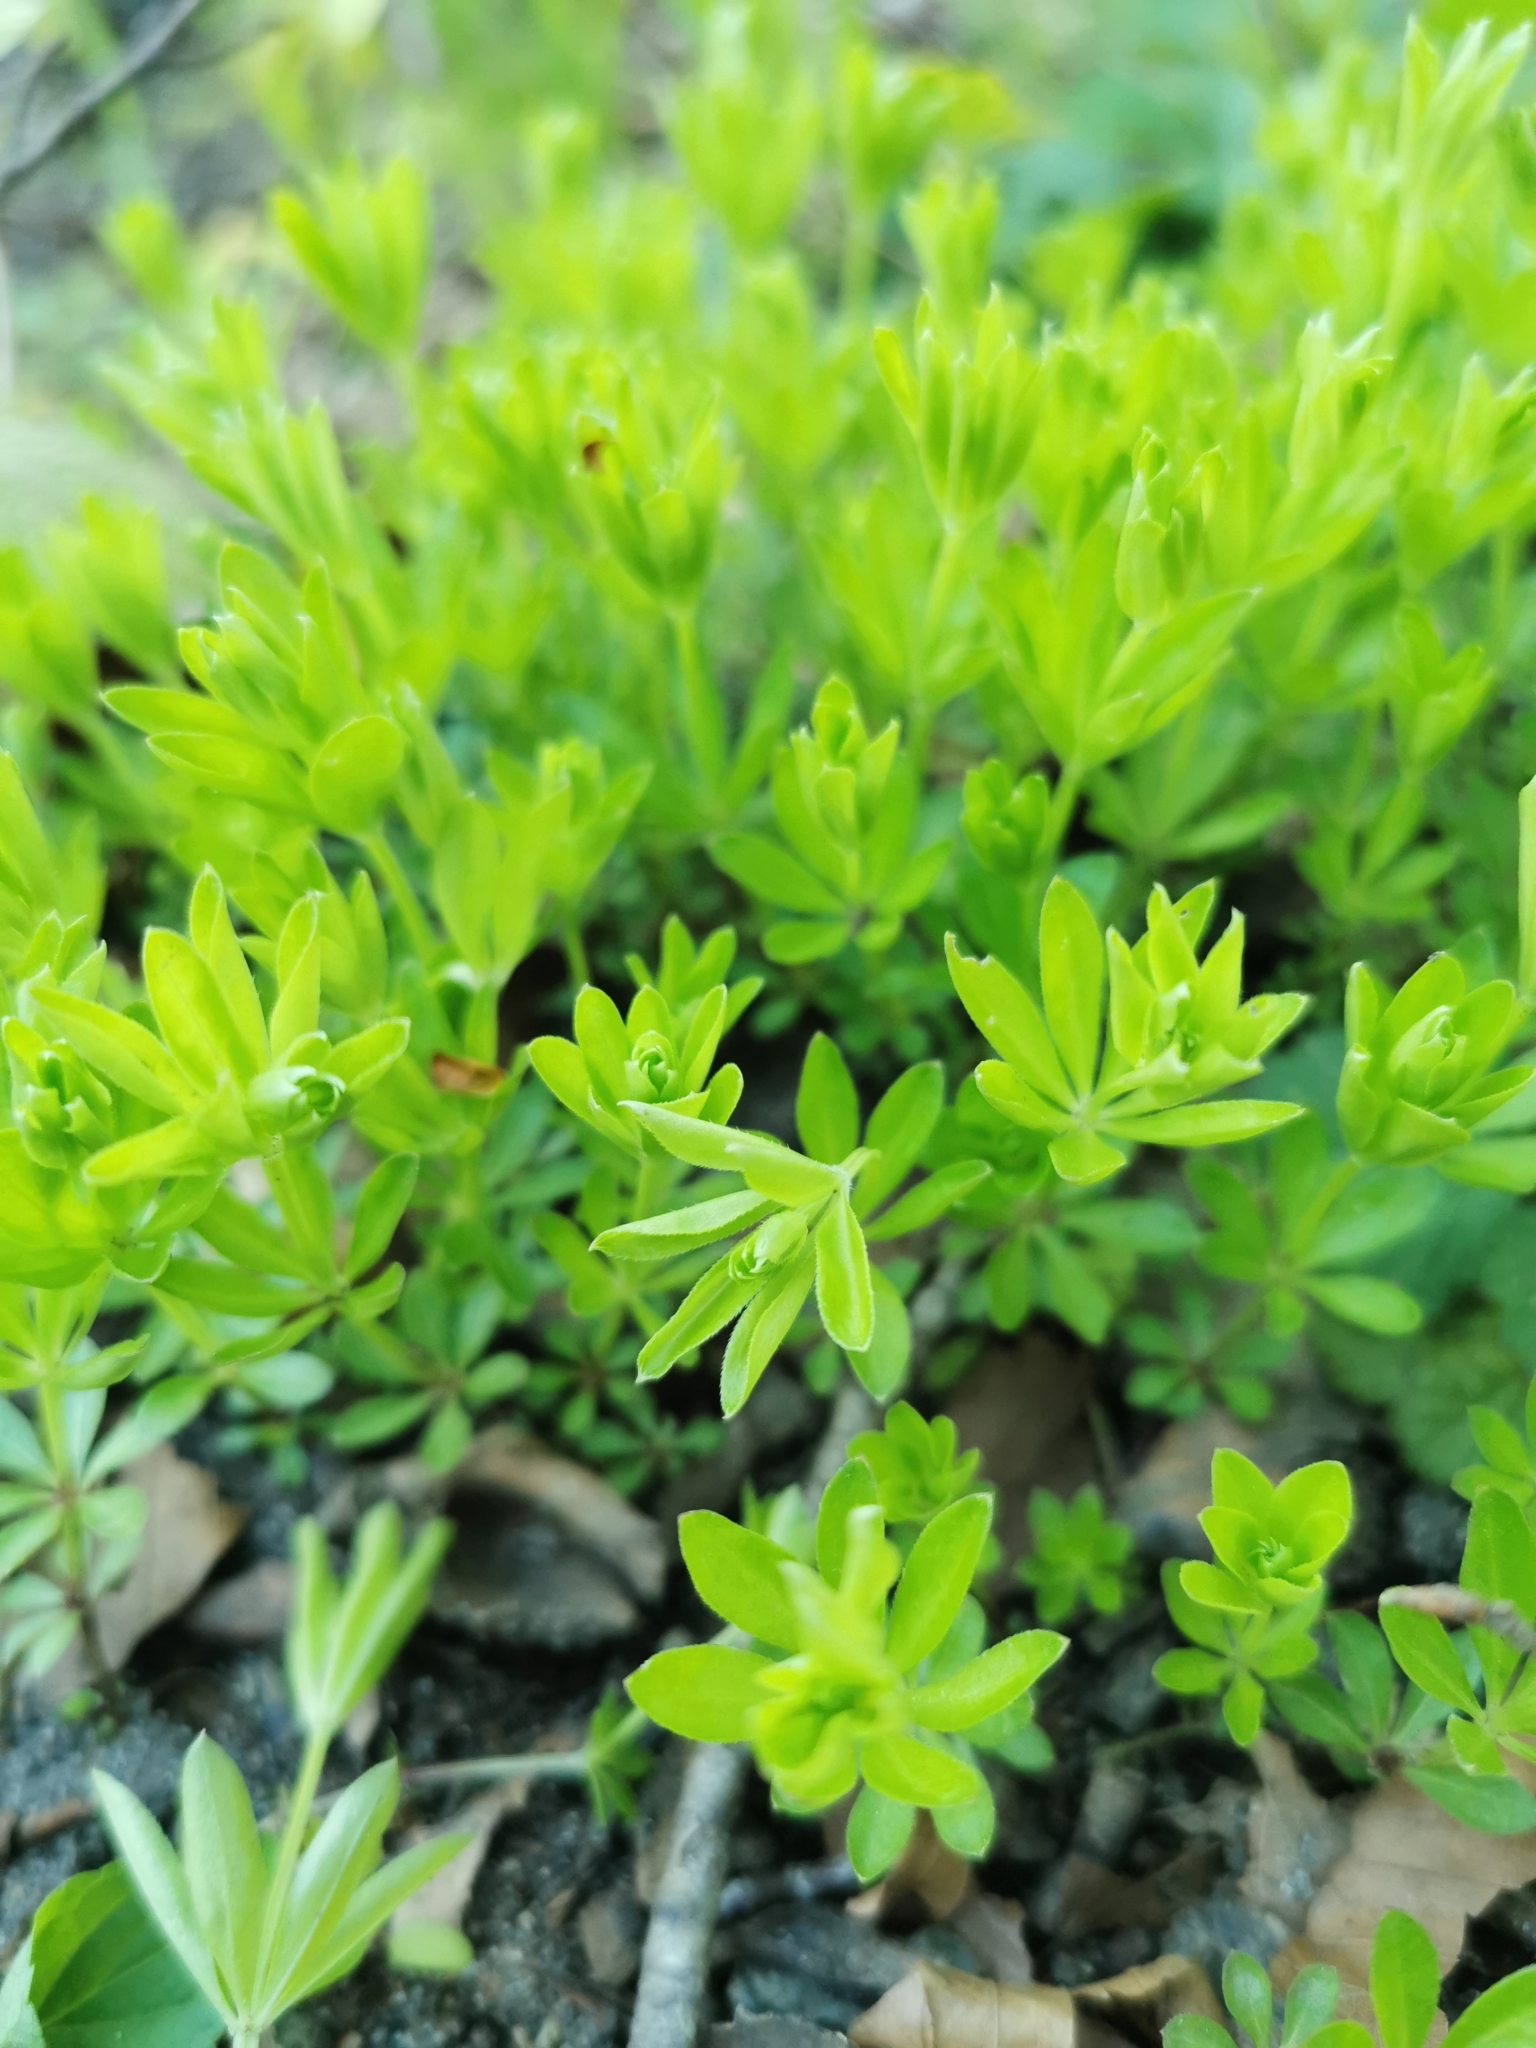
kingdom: Plantae
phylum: Tracheophyta
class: Magnoliopsida
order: Gentianales
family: Rubiaceae
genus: Galium
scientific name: Galium odoratum
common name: Sweet woodruff
